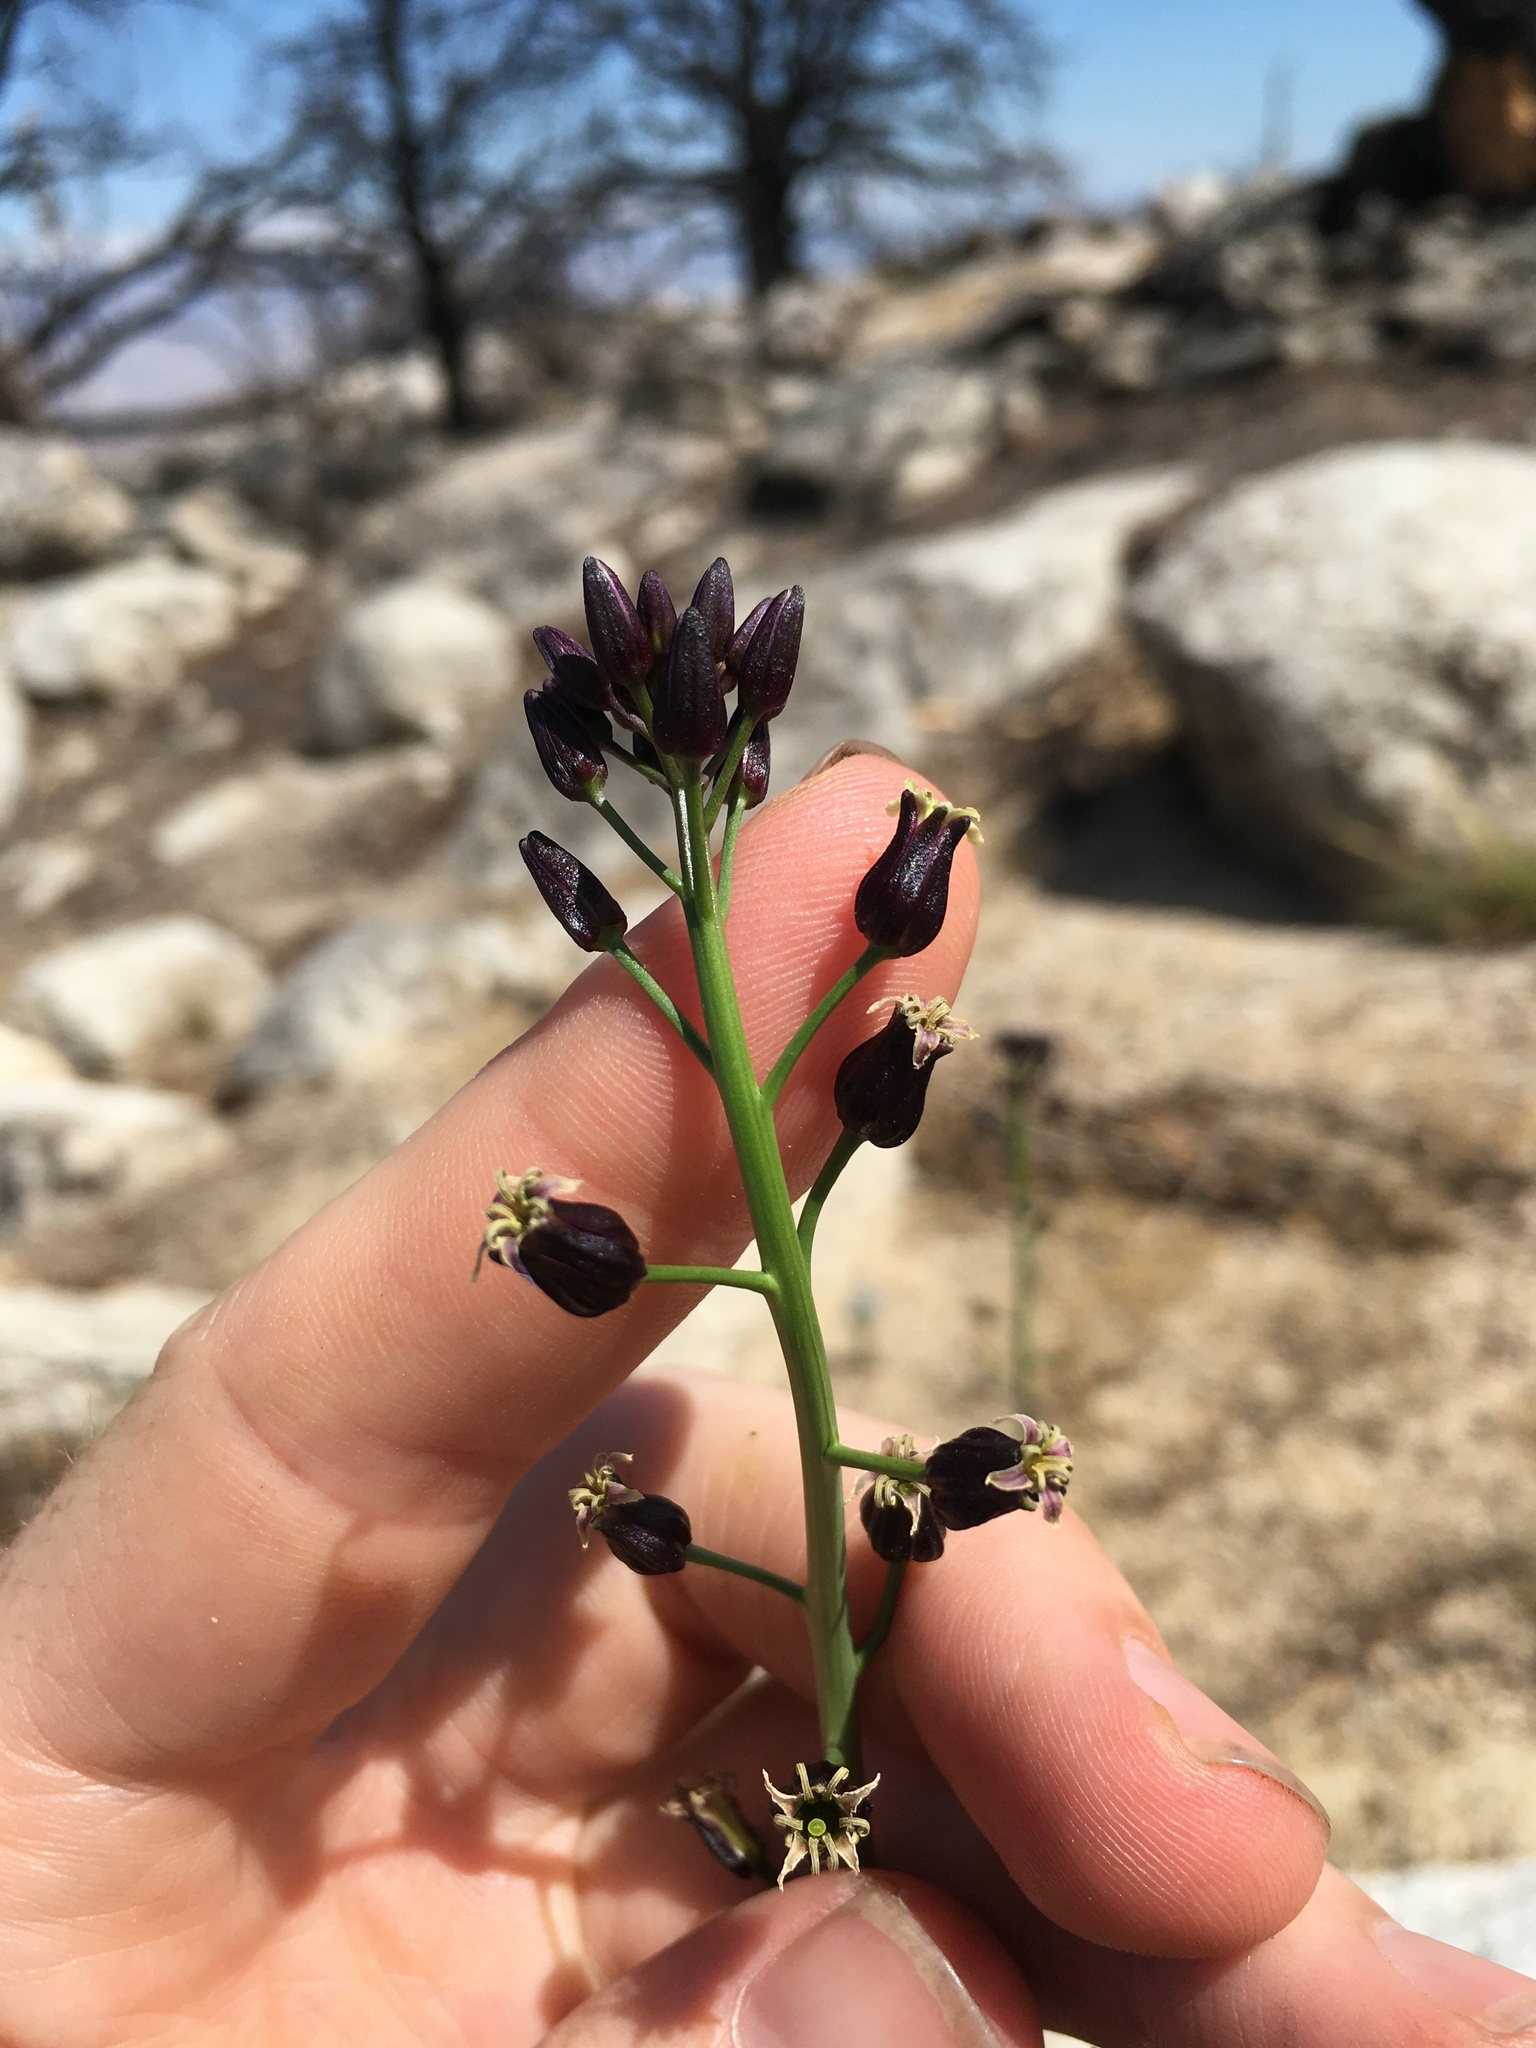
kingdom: Plantae
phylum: Tracheophyta
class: Magnoliopsida
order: Brassicales
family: Brassicaceae
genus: Streptanthus
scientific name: Streptanthus pilosus
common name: Chocolate drops
